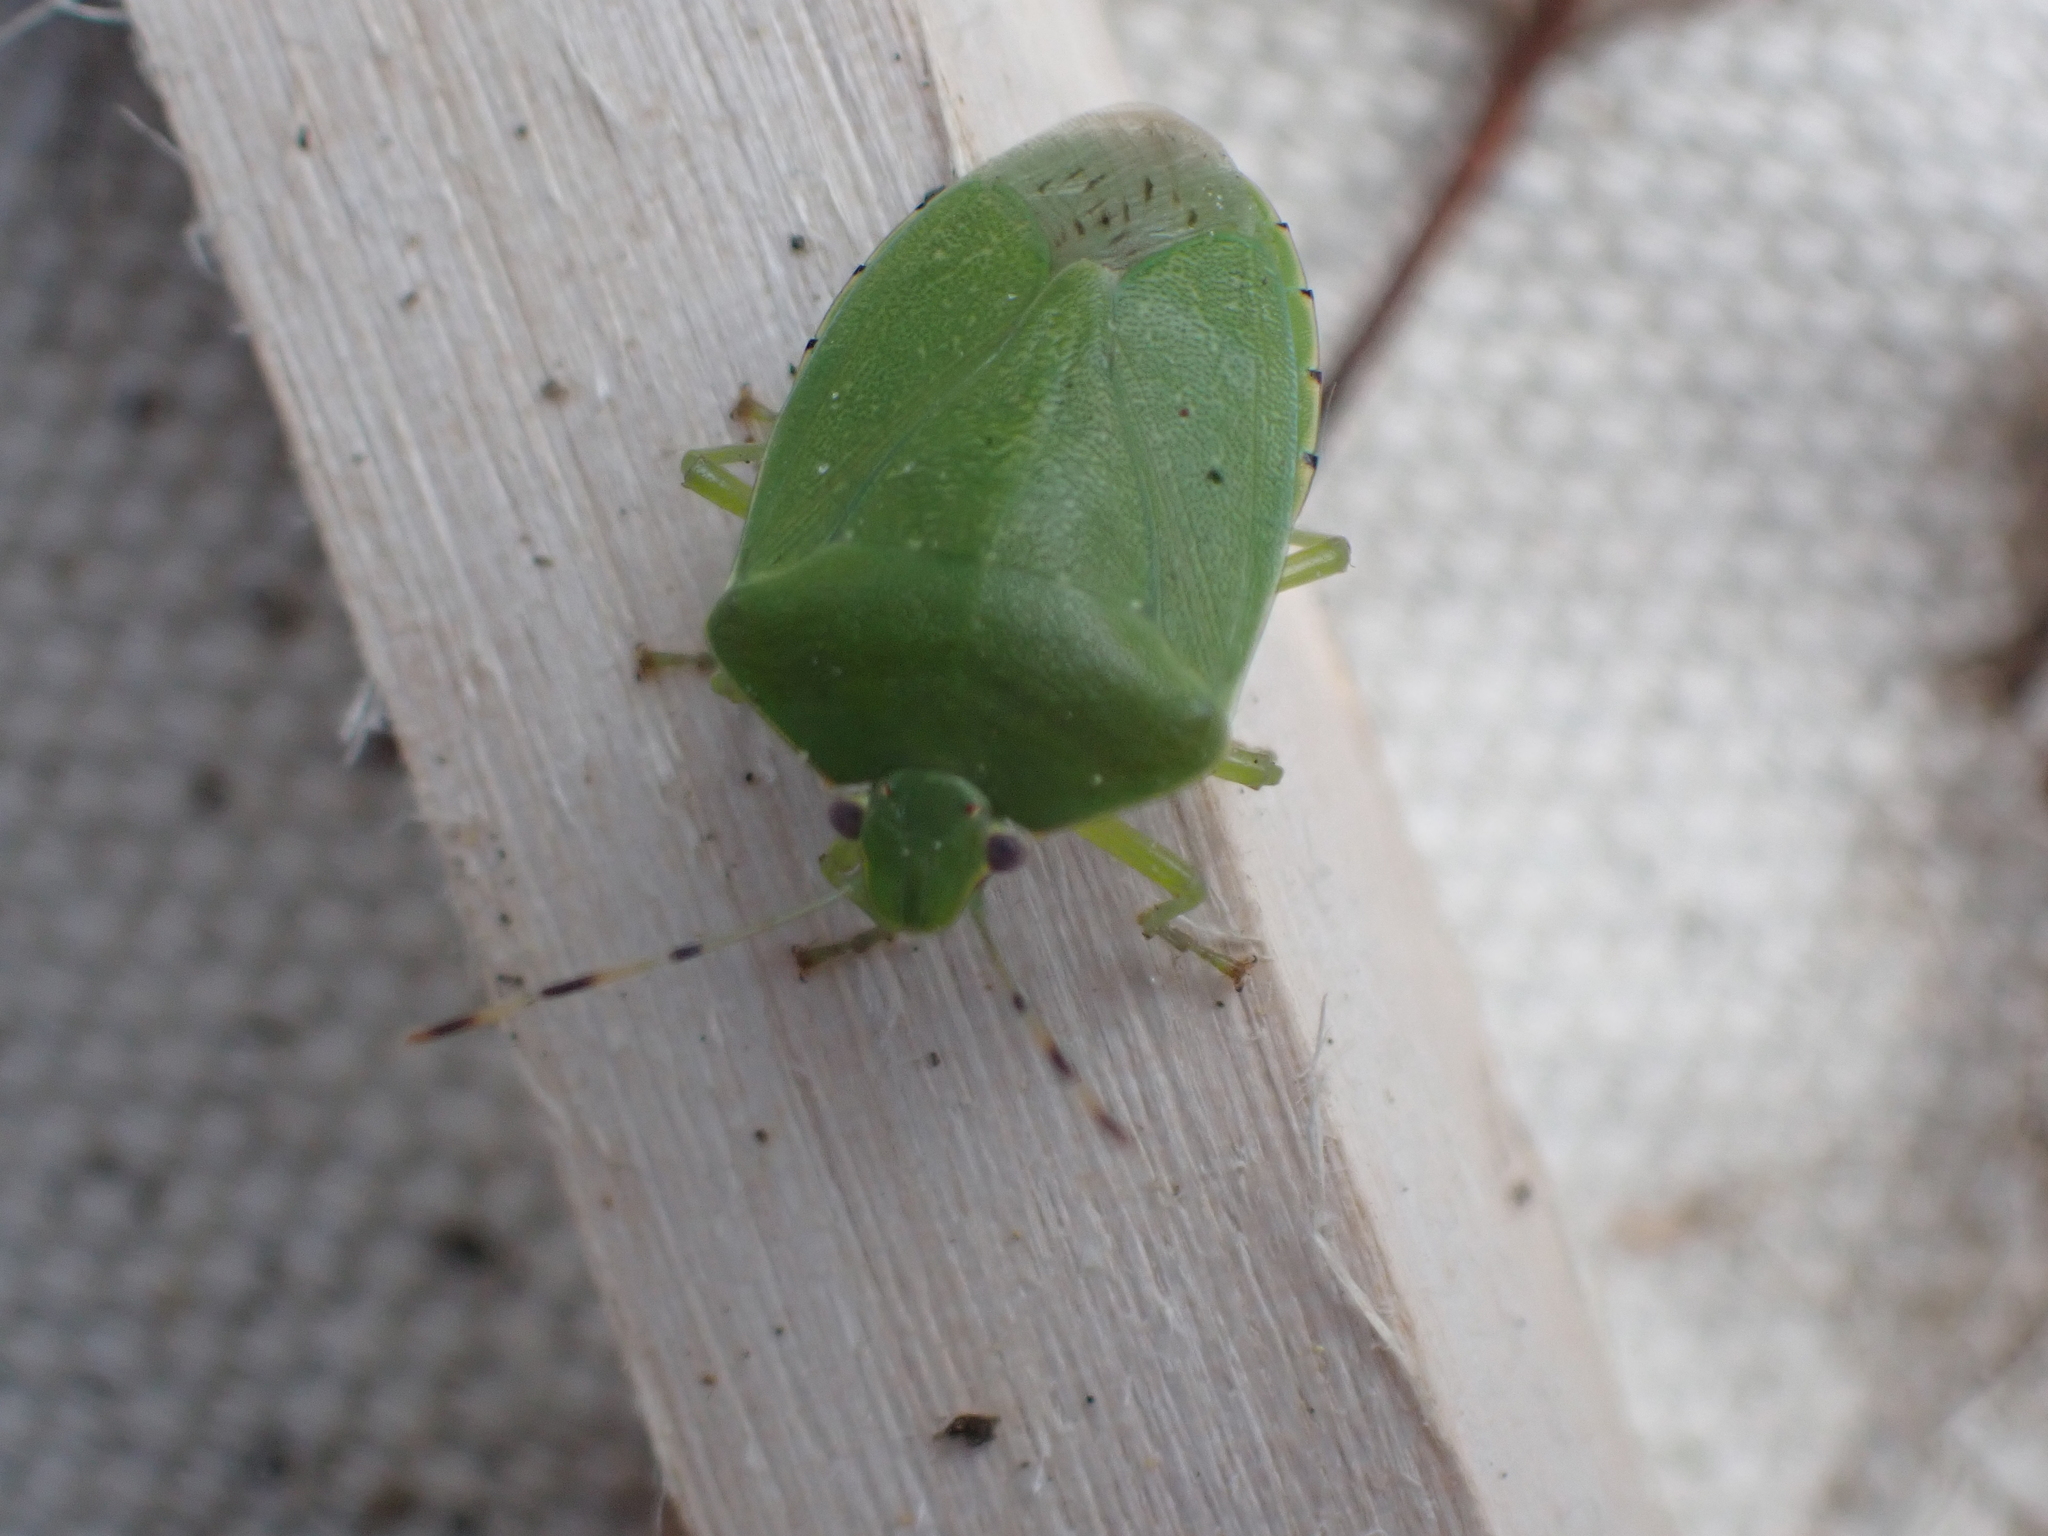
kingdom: Animalia
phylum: Arthropoda
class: Insecta
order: Hemiptera
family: Pentatomidae
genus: Chinavia
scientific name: Chinavia hilaris
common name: Green stink bug
